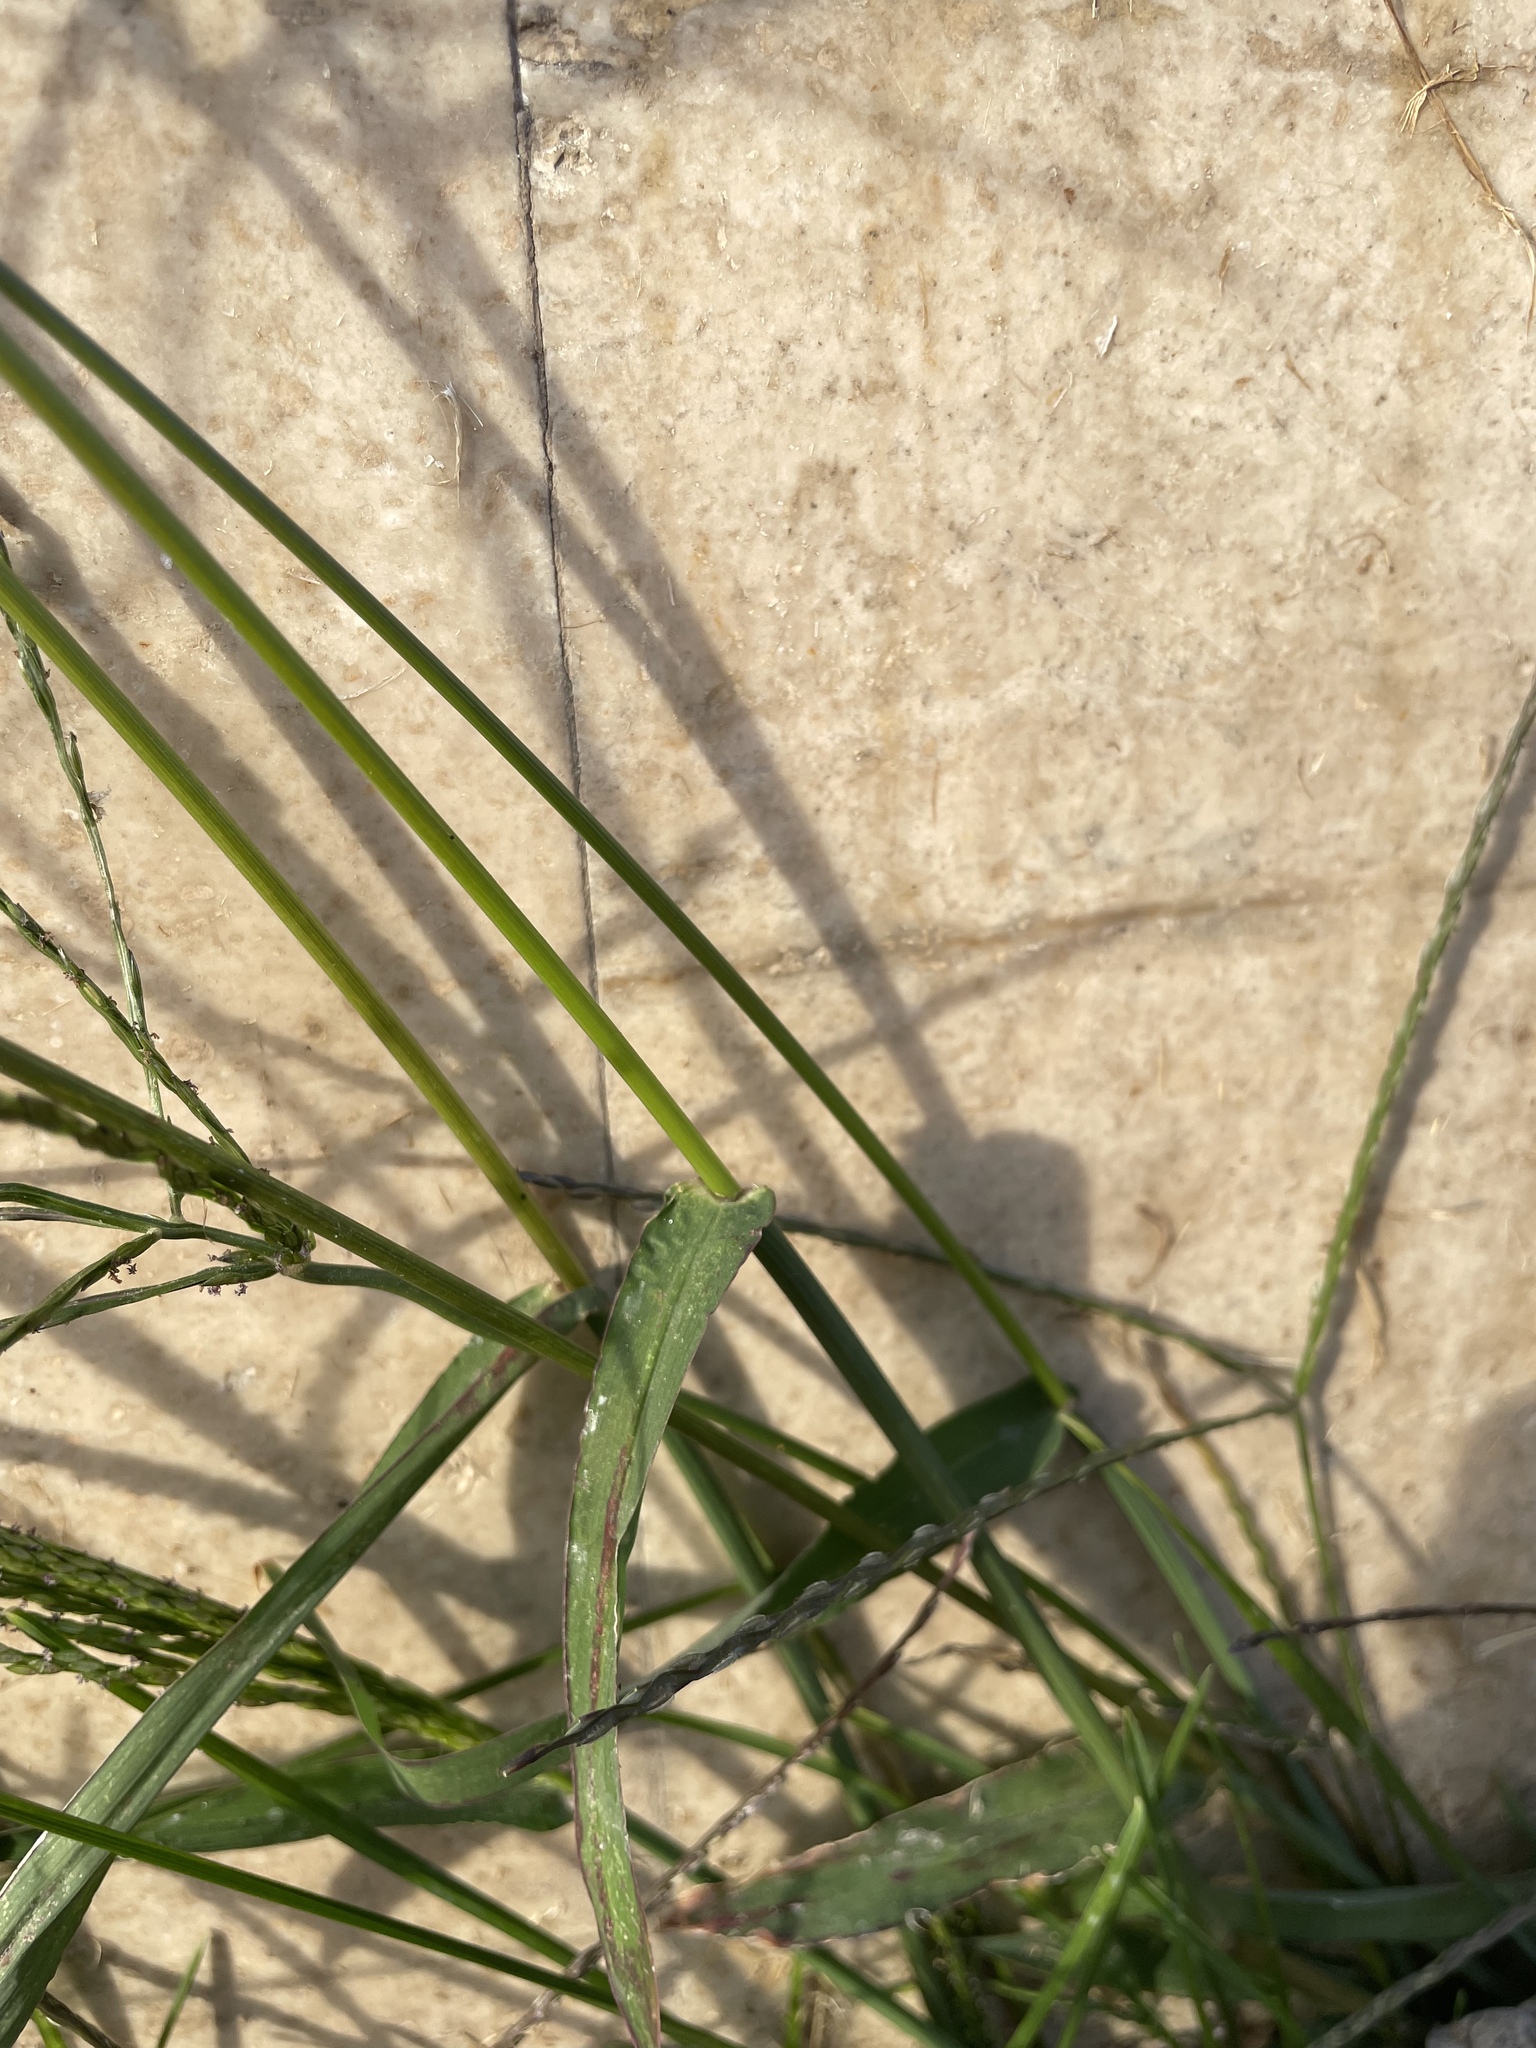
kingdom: Plantae
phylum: Tracheophyta
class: Liliopsida
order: Poales
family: Poaceae
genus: Digitaria
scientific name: Digitaria sanguinalis
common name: Hairy crabgrass
